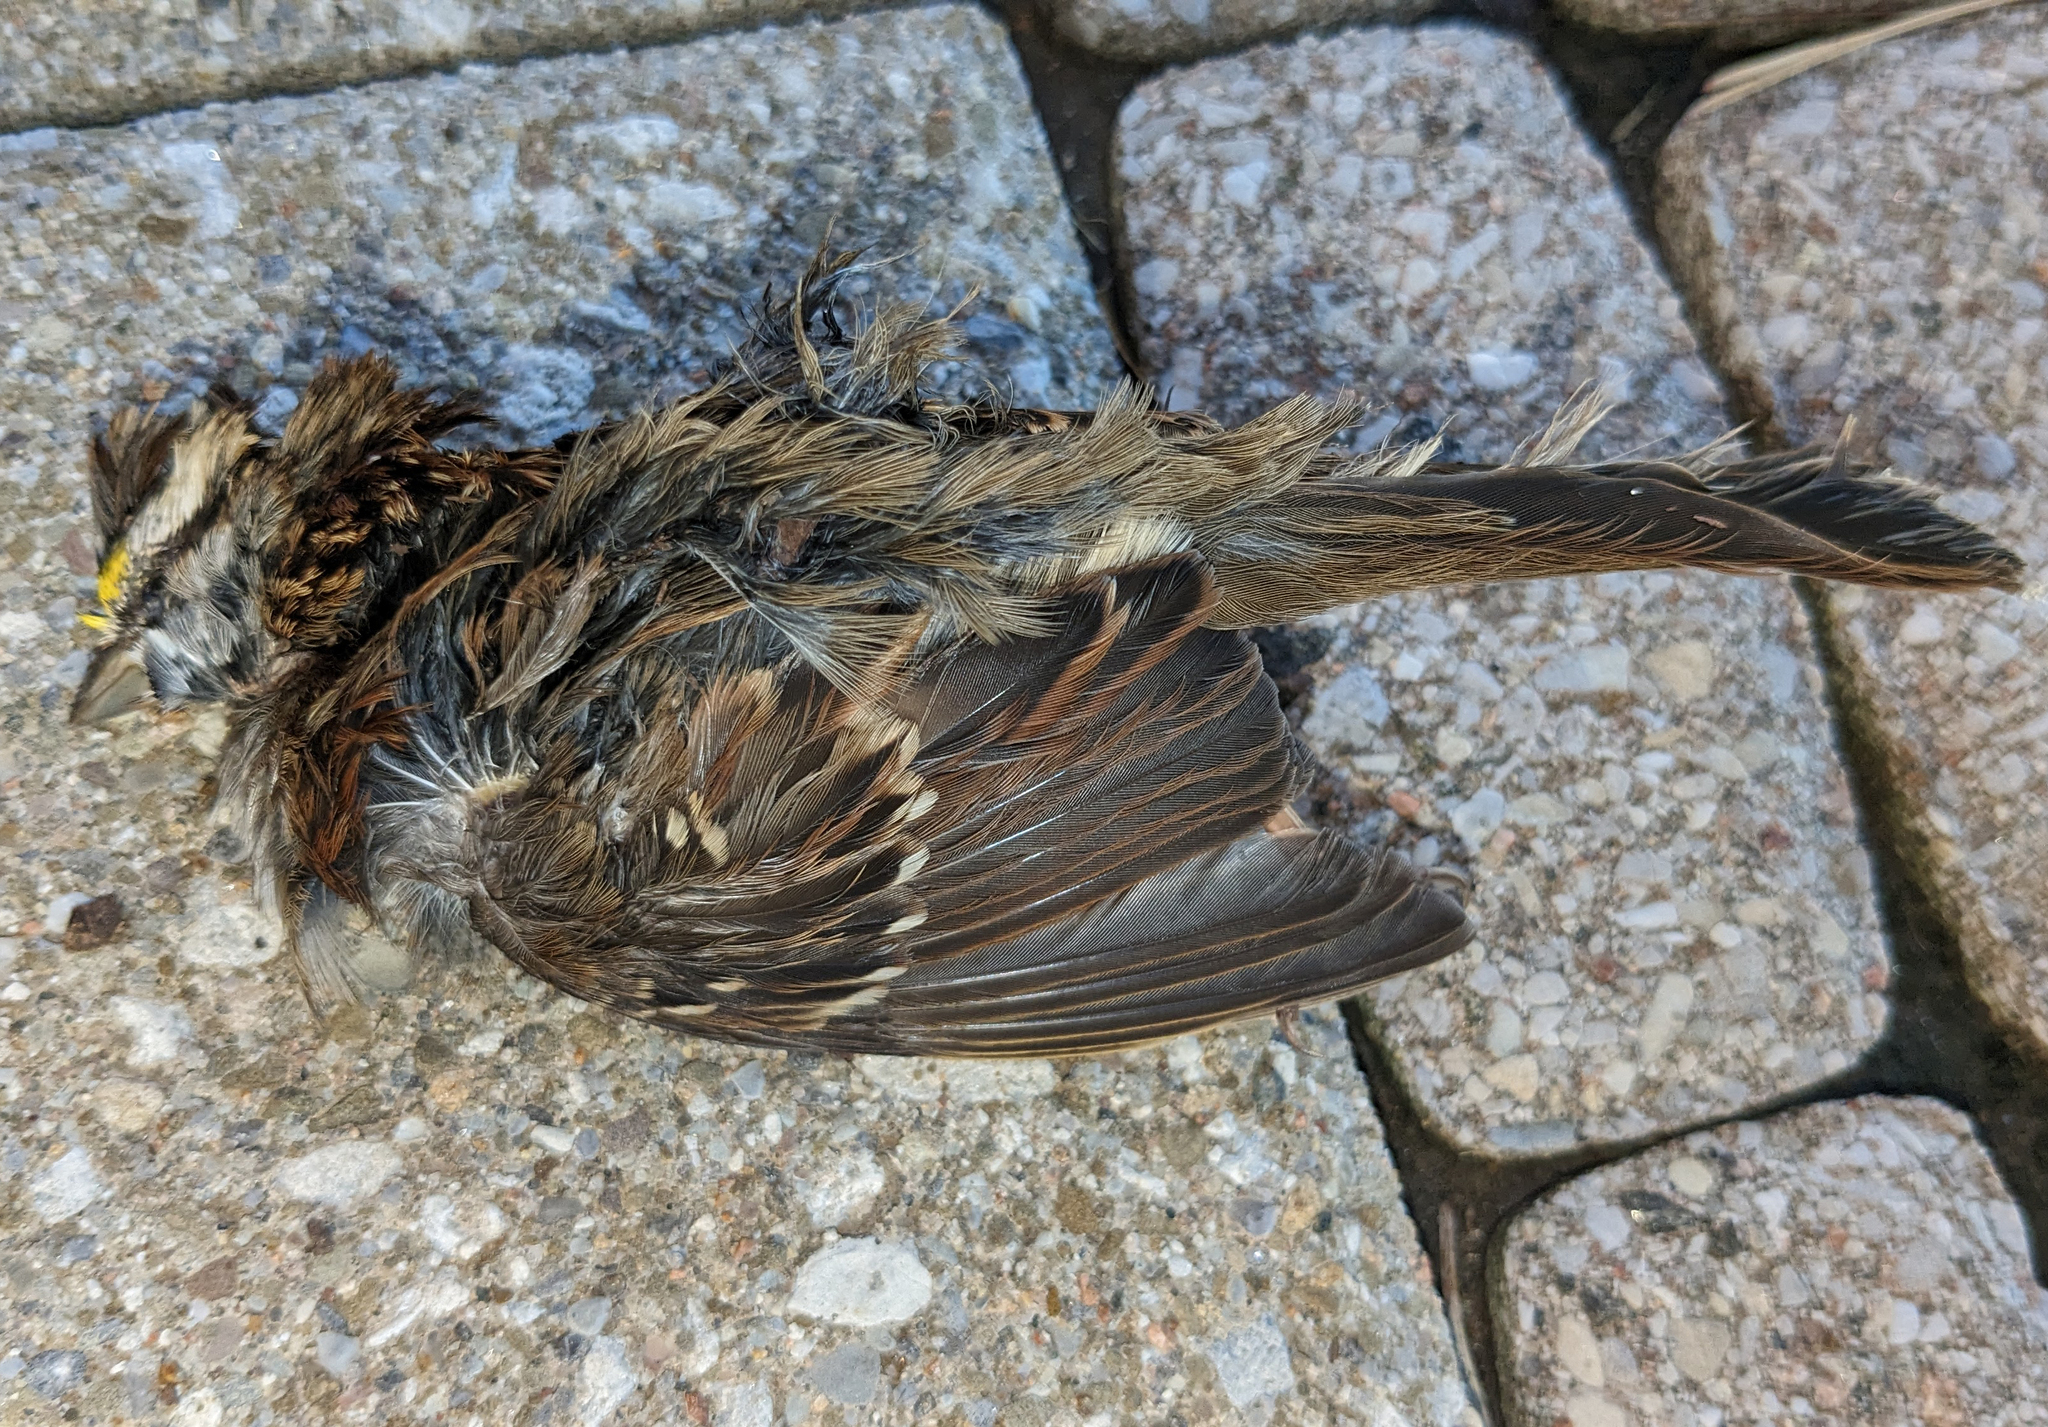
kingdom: Animalia
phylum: Chordata
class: Aves
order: Passeriformes
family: Passerellidae
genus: Zonotrichia
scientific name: Zonotrichia albicollis
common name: White-throated sparrow
